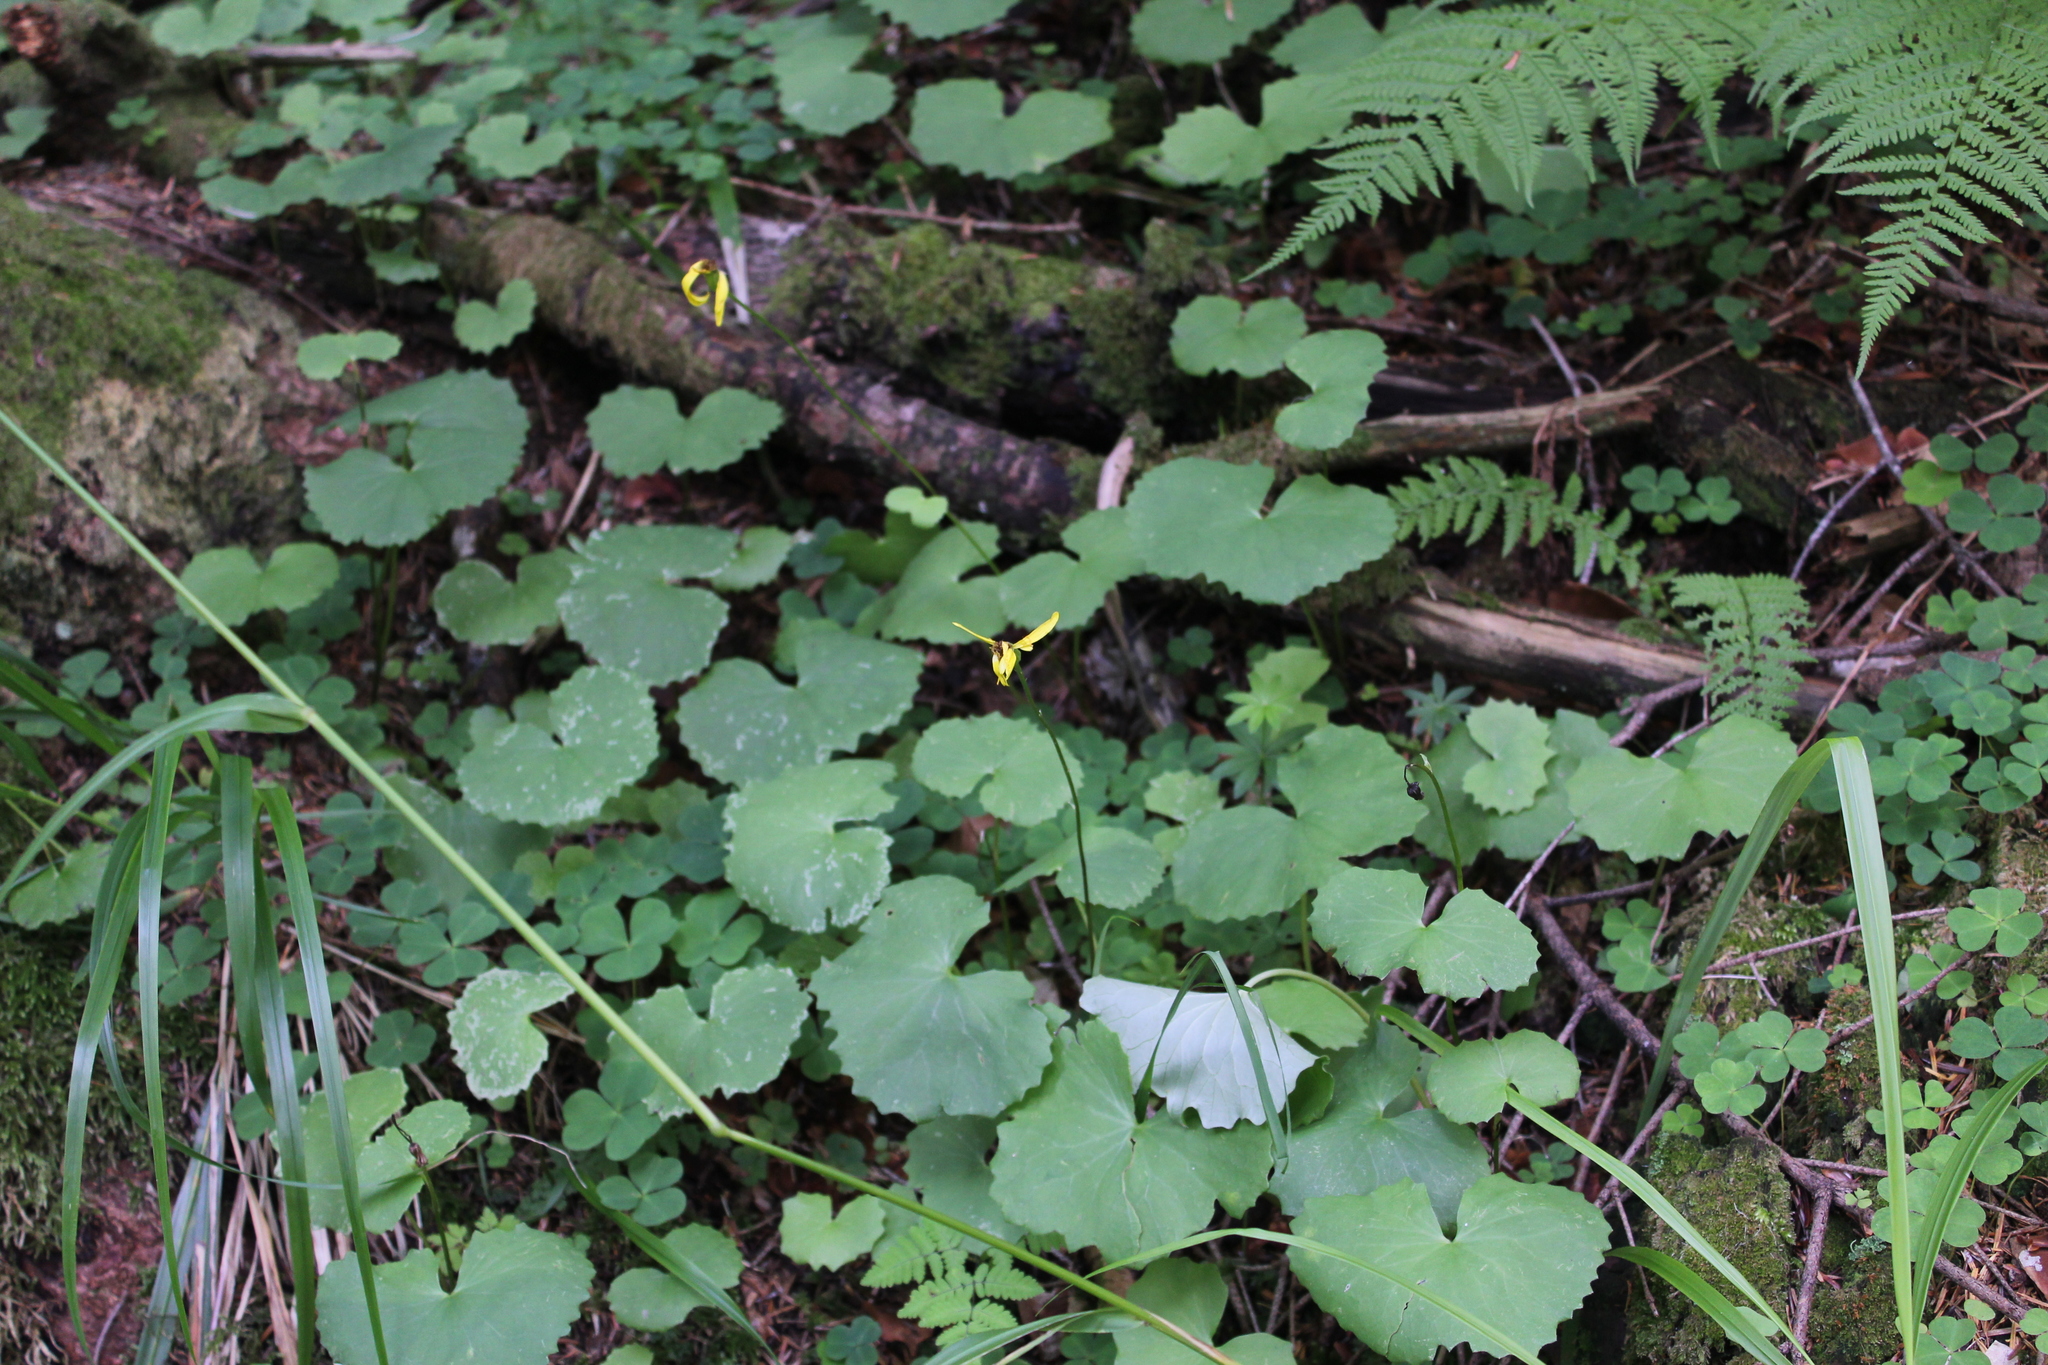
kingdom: Plantae
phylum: Tracheophyta
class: Magnoliopsida
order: Asterales
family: Asteraceae
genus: Dolichorrhiza
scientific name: Dolichorrhiza renifolia
